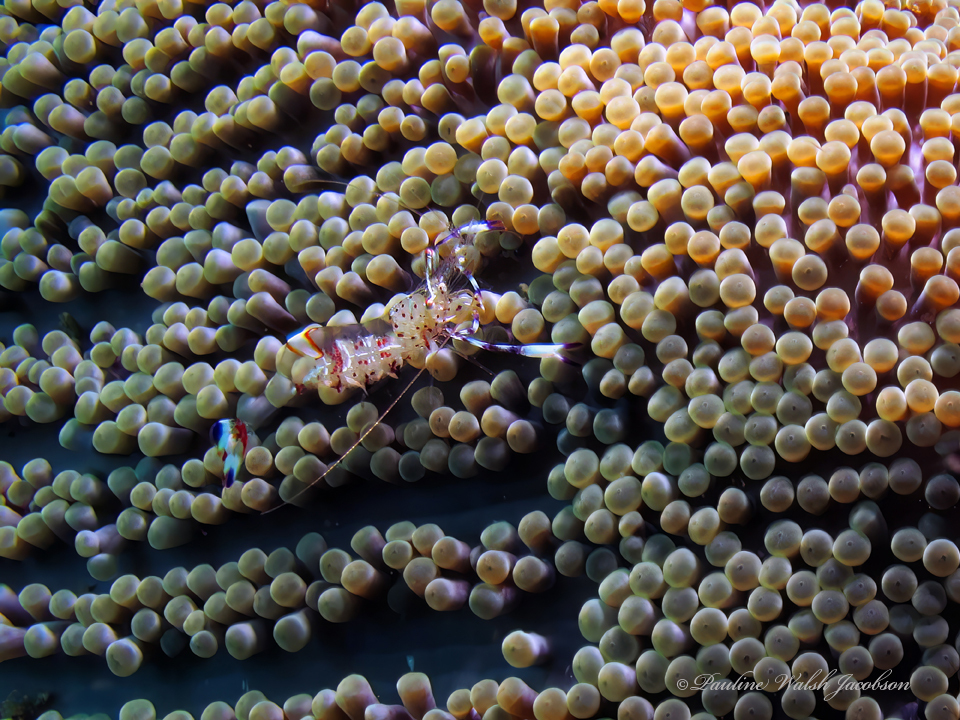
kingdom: Animalia
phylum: Arthropoda
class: Malacostraca
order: Decapoda
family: Palaemonidae
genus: Ancylomenes
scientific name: Ancylomenes holthuisi
